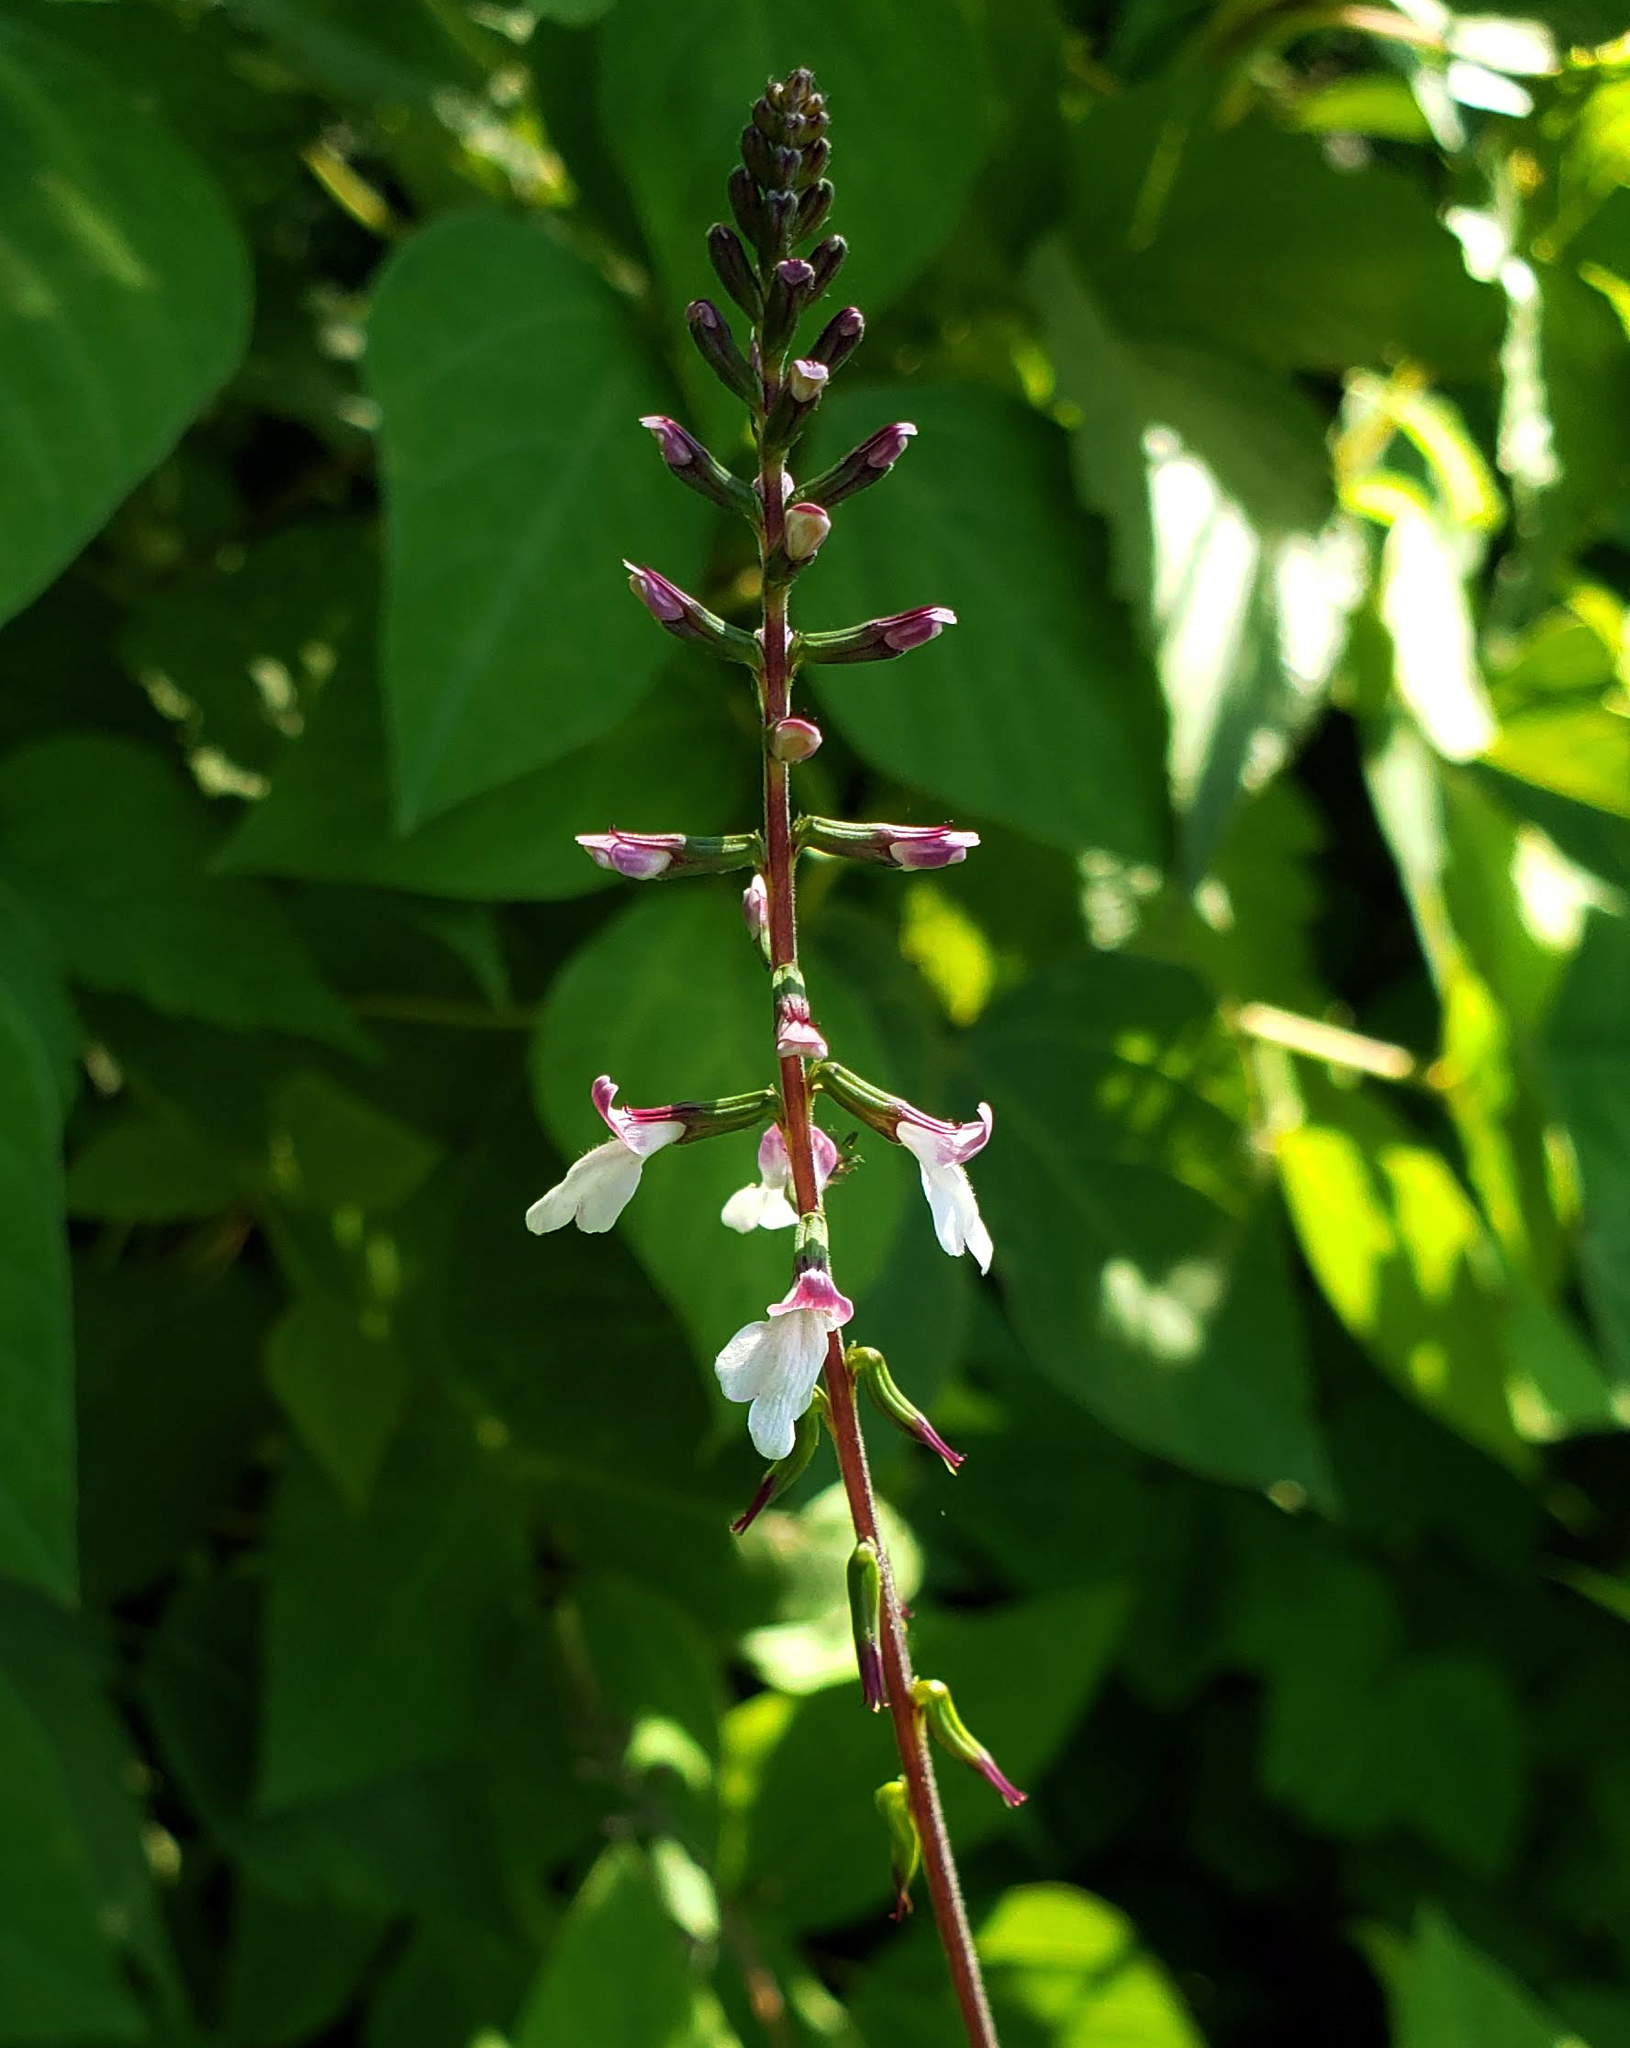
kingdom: Plantae
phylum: Tracheophyta
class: Magnoliopsida
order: Lamiales
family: Phrymaceae
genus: Phryma
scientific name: Phryma leptostachya
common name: American lopseed
